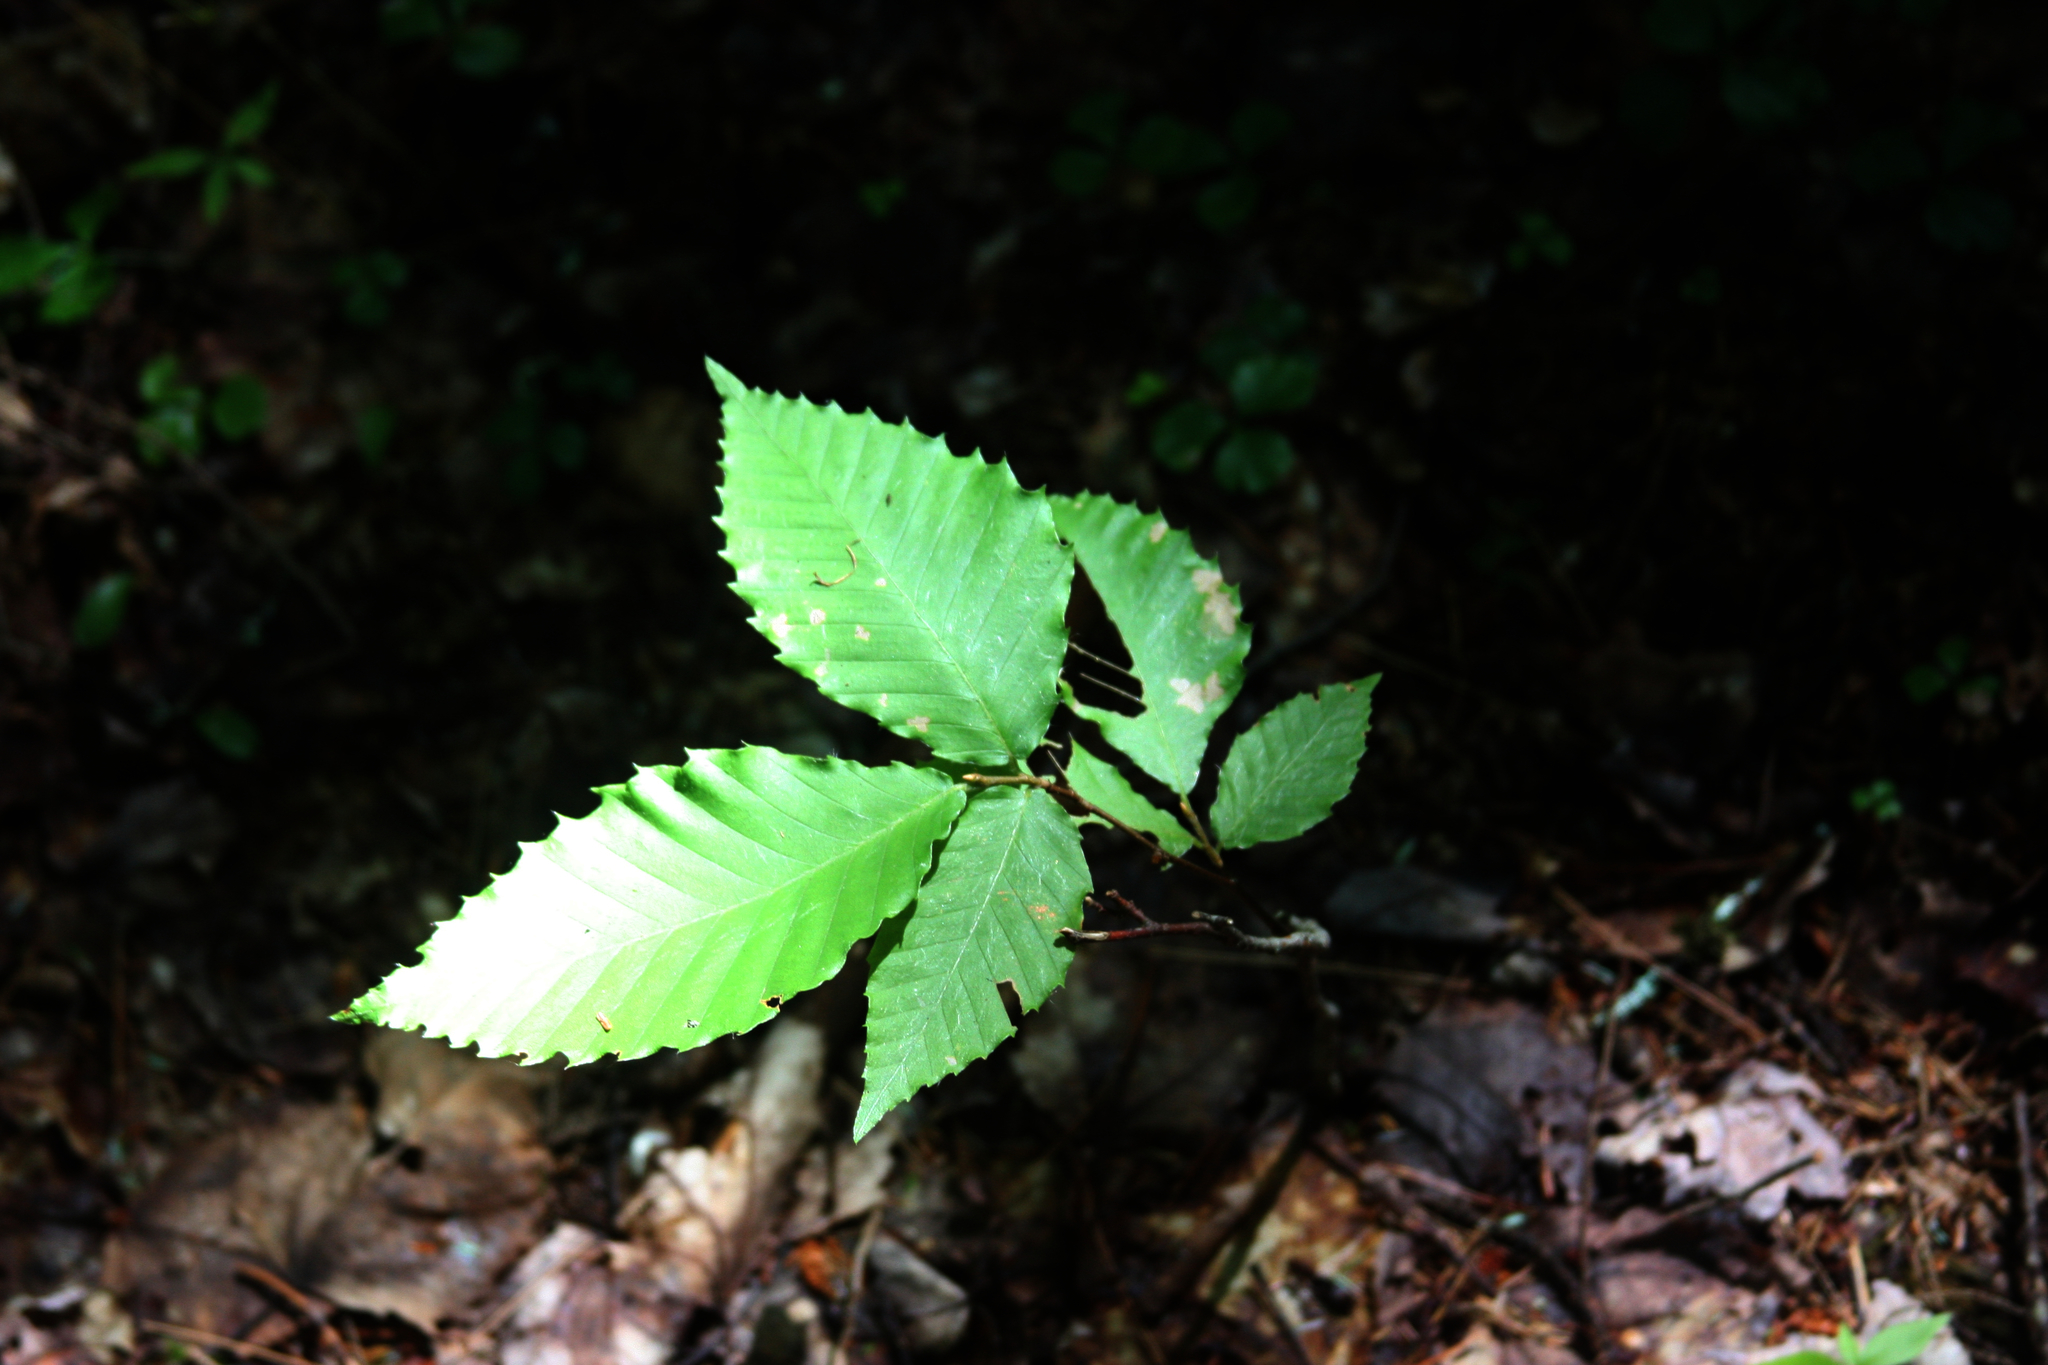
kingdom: Plantae
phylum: Tracheophyta
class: Magnoliopsida
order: Fagales
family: Fagaceae
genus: Fagus
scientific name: Fagus grandifolia
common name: American beech
